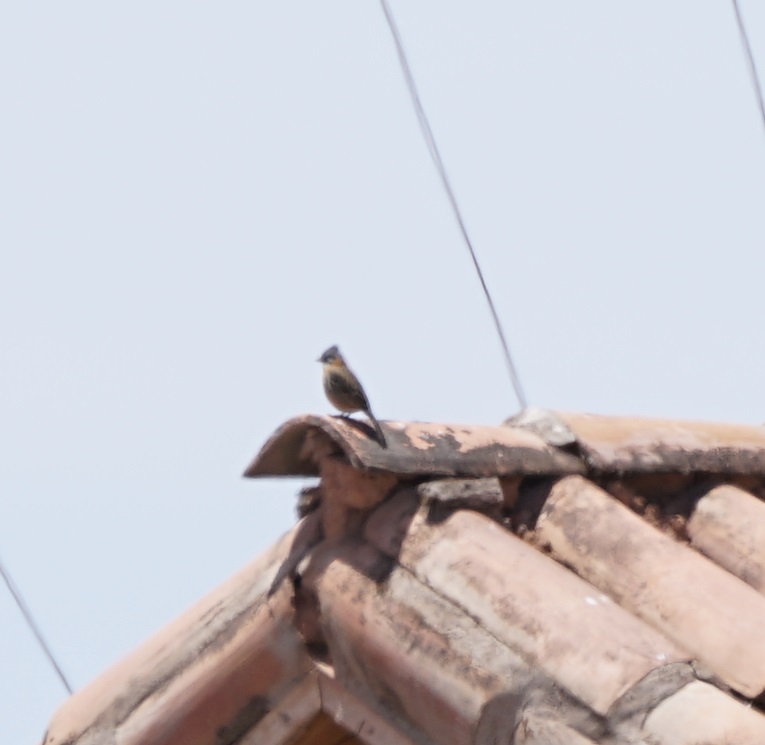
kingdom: Animalia
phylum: Chordata
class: Aves
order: Passeriformes
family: Passerellidae
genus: Zonotrichia
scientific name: Zonotrichia capensis
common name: Rufous-collared sparrow
